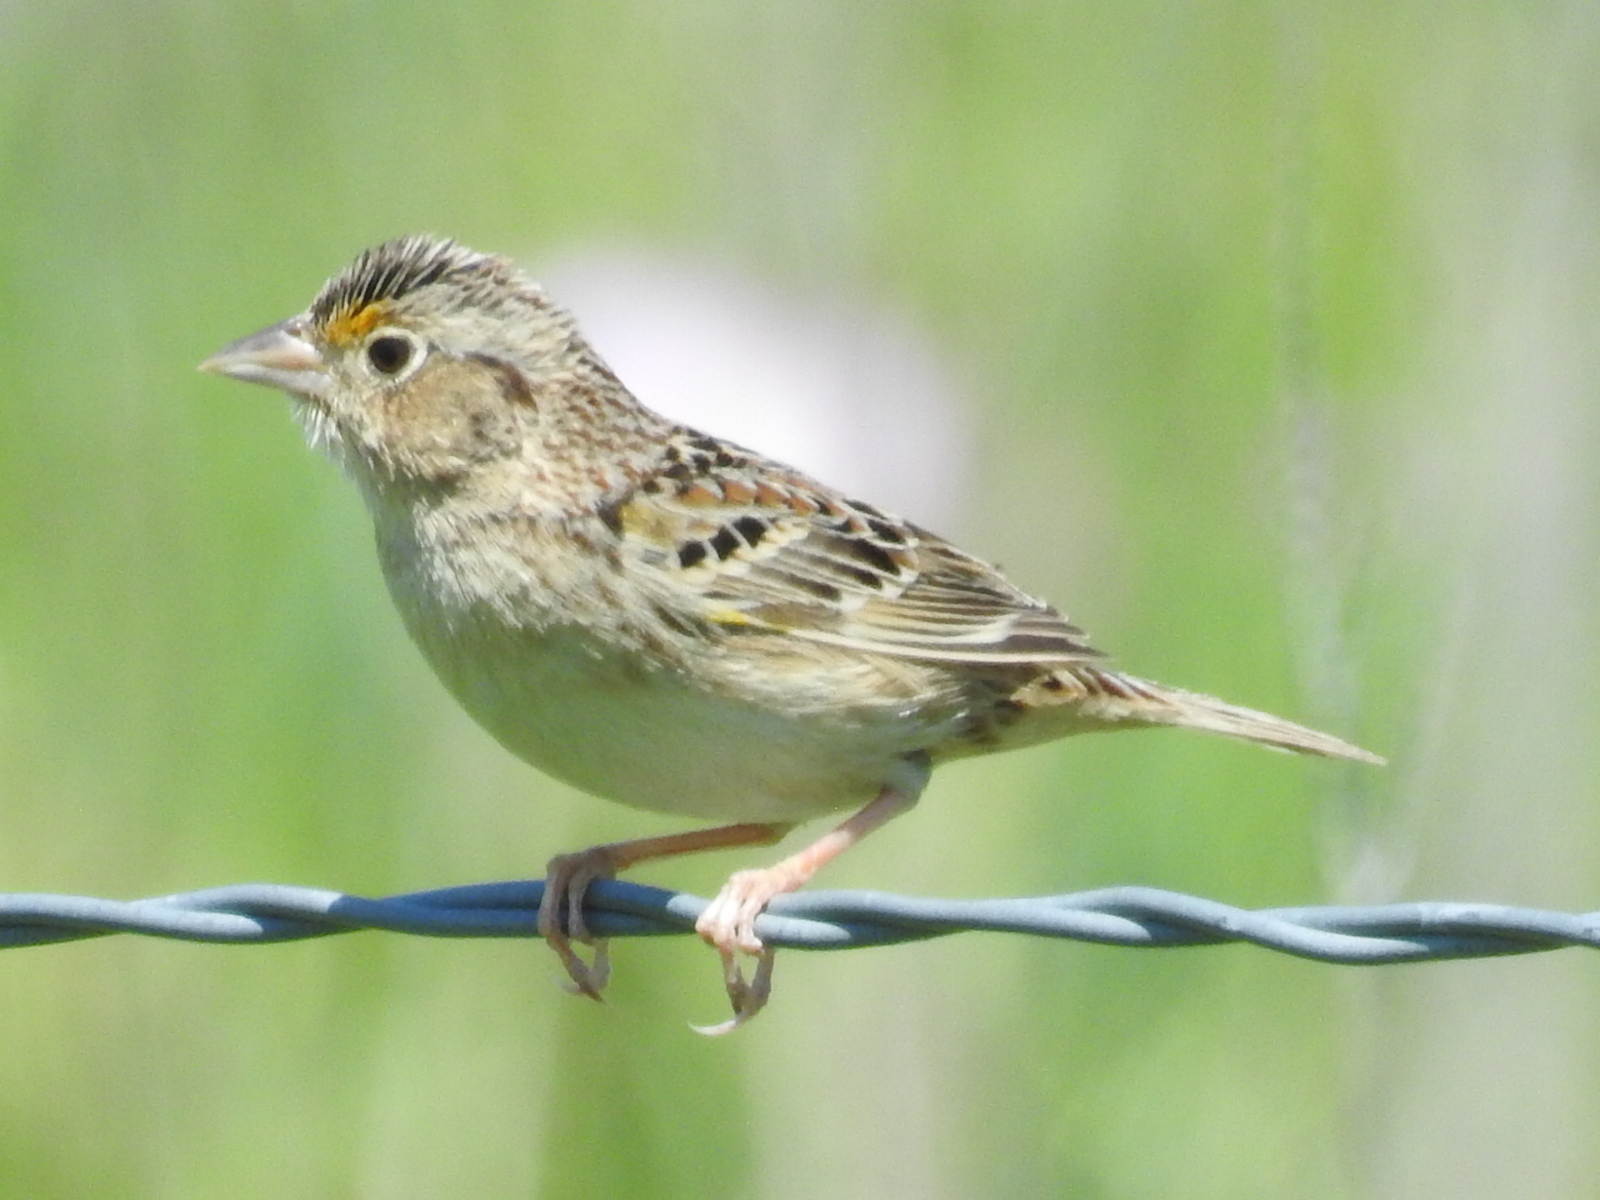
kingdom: Animalia
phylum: Chordata
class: Aves
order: Passeriformes
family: Passerellidae
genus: Ammodramus
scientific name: Ammodramus savannarum
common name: Grasshopper sparrow
